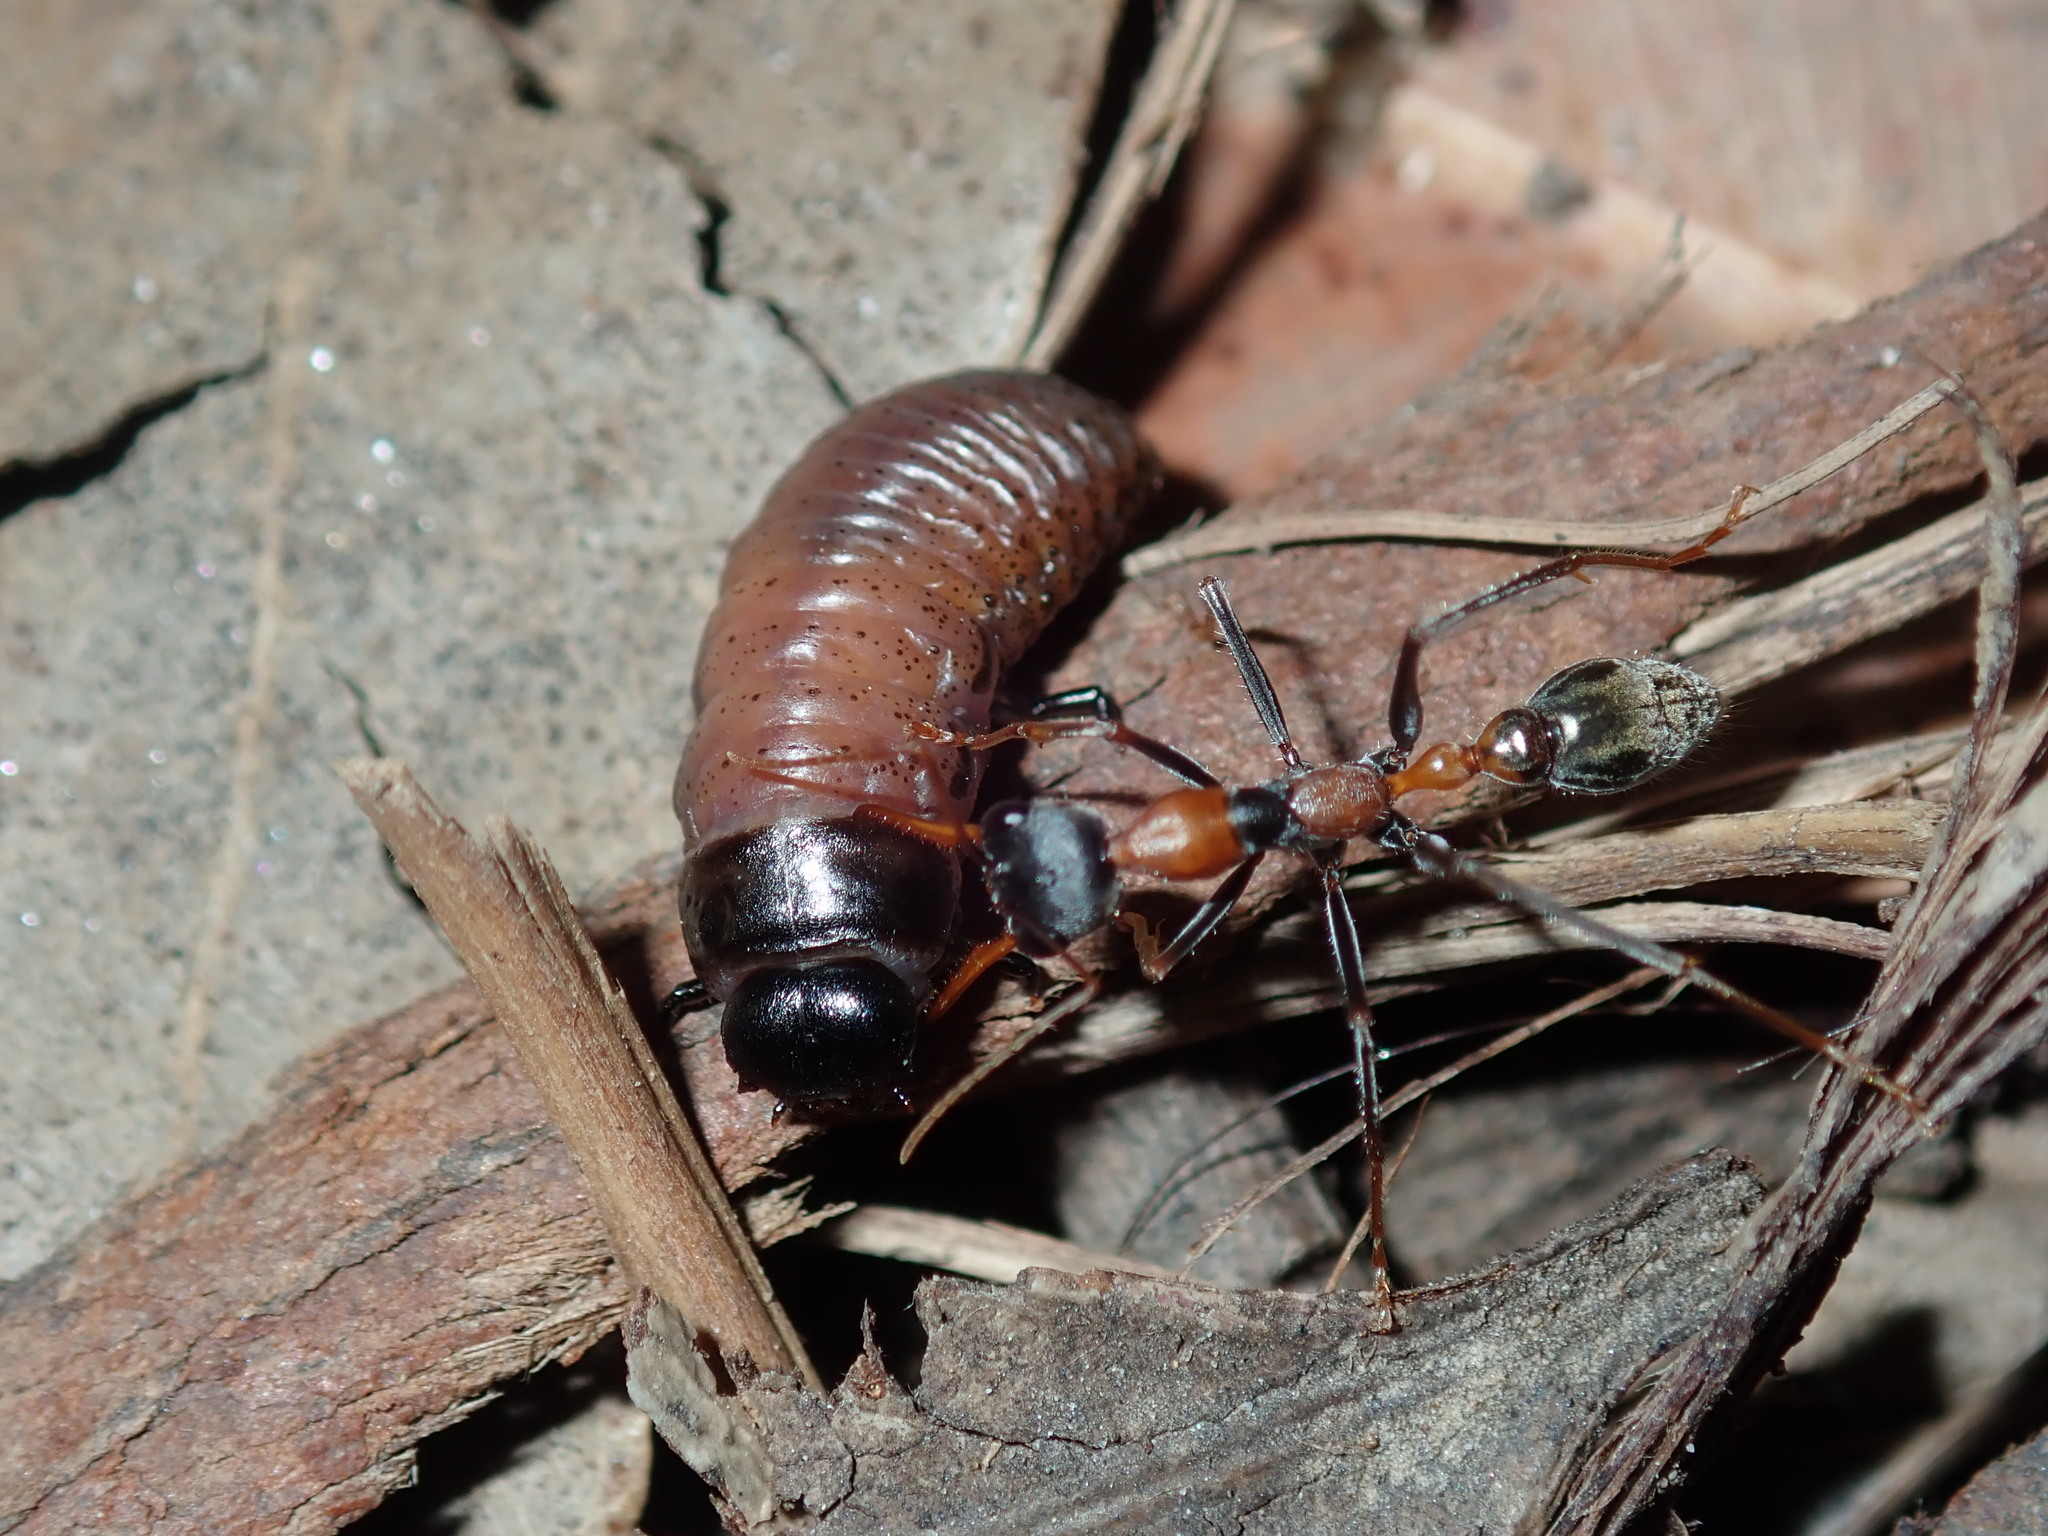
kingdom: Animalia
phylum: Arthropoda
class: Insecta
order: Hymenoptera
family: Formicidae
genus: Myrmecia
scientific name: Myrmecia nigrocincta
